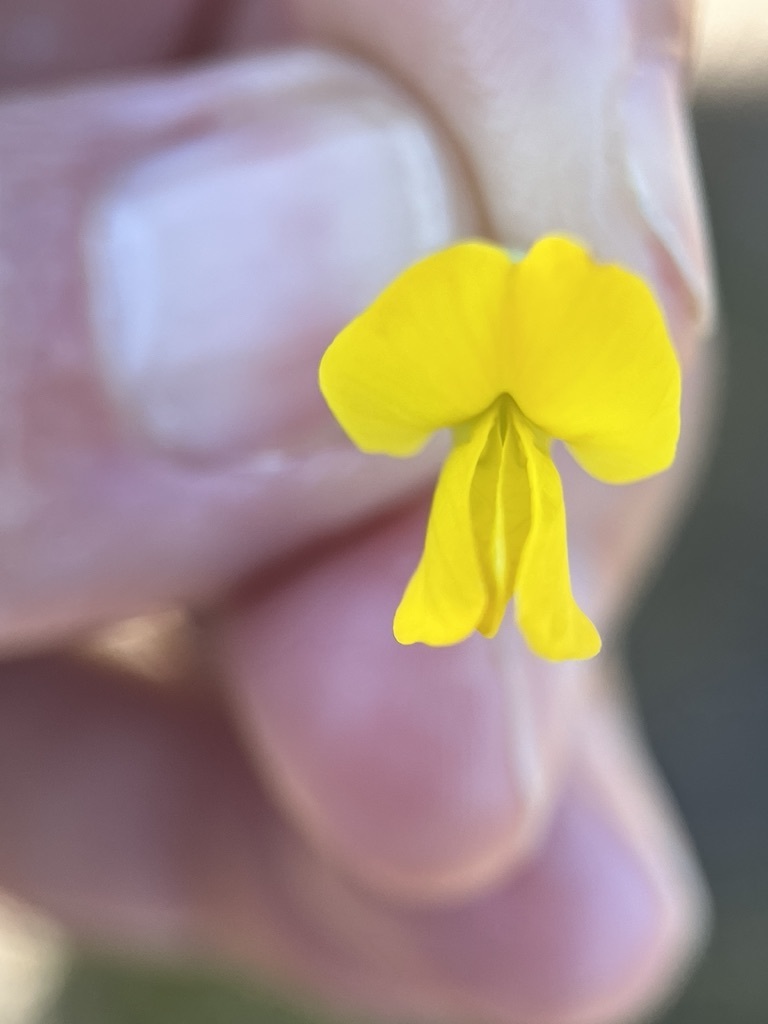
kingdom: Plantae
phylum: Tracheophyta
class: Magnoliopsida
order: Fabales
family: Fabaceae
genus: Xiphotheca
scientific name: Xiphotheca reflexa
